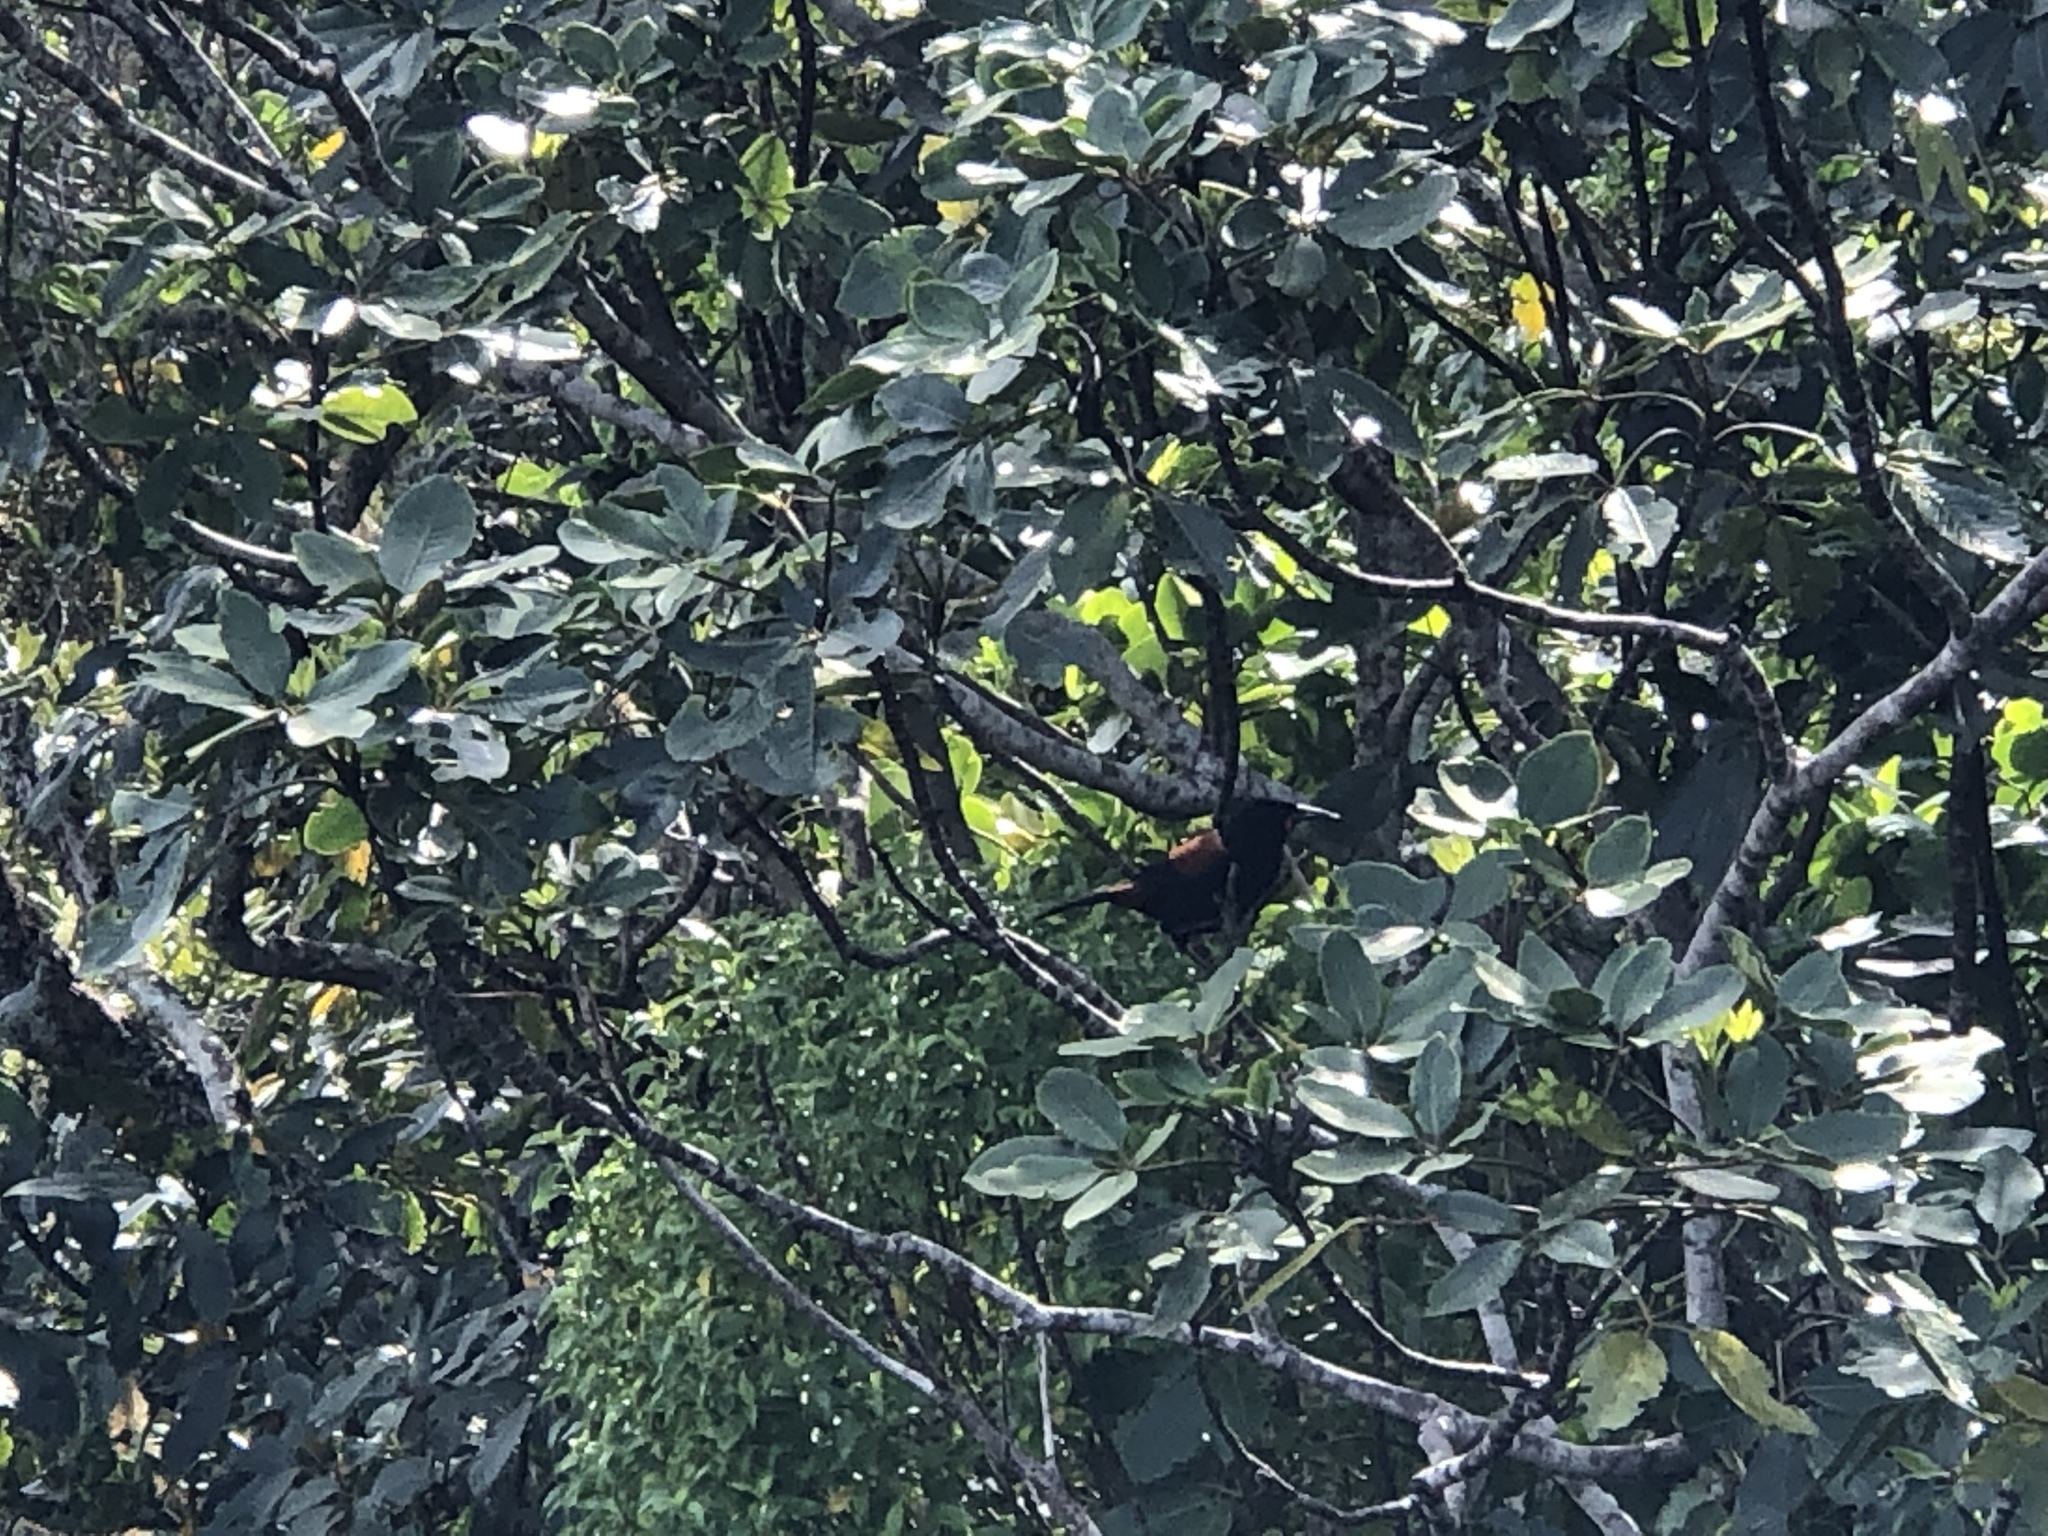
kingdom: Animalia
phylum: Chordata
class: Aves
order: Passeriformes
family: Callaeatidae
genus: Philesturnus
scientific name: Philesturnus carunculatus
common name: South island saddleback
